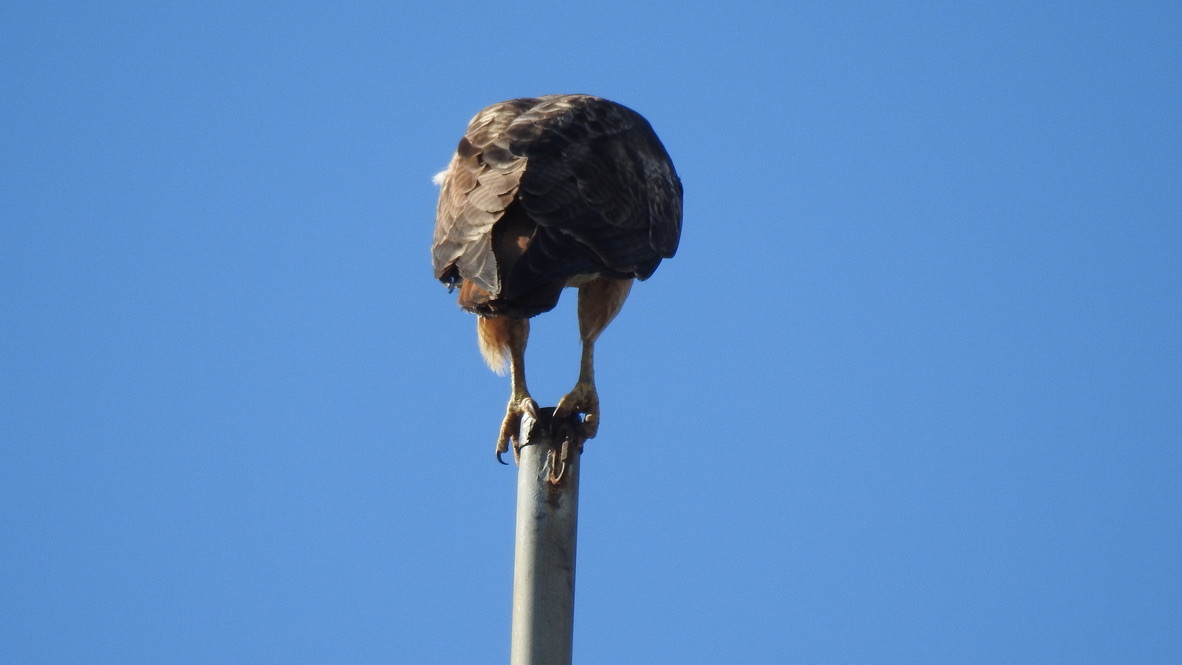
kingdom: Animalia
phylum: Chordata
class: Aves
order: Accipitriformes
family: Accipitridae
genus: Buteo
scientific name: Buteo jamaicensis
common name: Red-tailed hawk
